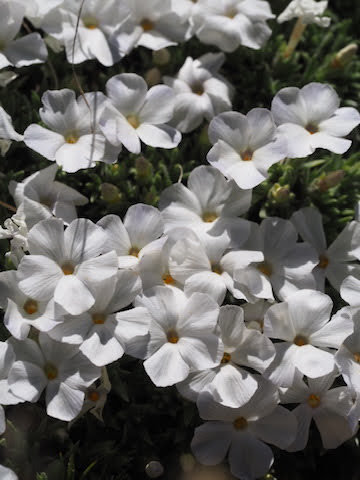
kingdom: Plantae
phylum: Tracheophyta
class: Magnoliopsida
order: Ericales
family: Polemoniaceae
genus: Phlox
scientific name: Phlox condensata
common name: Compact phlox
